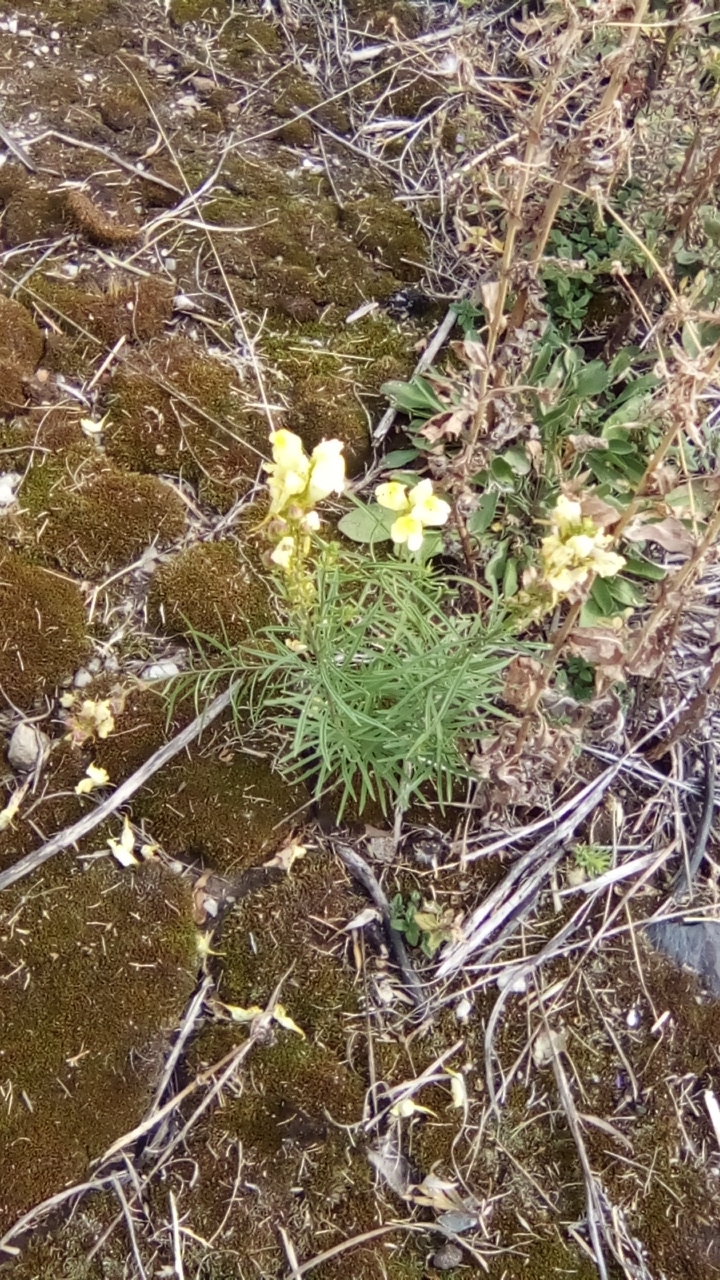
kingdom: Plantae
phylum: Tracheophyta
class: Magnoliopsida
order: Lamiales
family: Plantaginaceae
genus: Linaria
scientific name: Linaria vulgaris
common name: Butter and eggs
